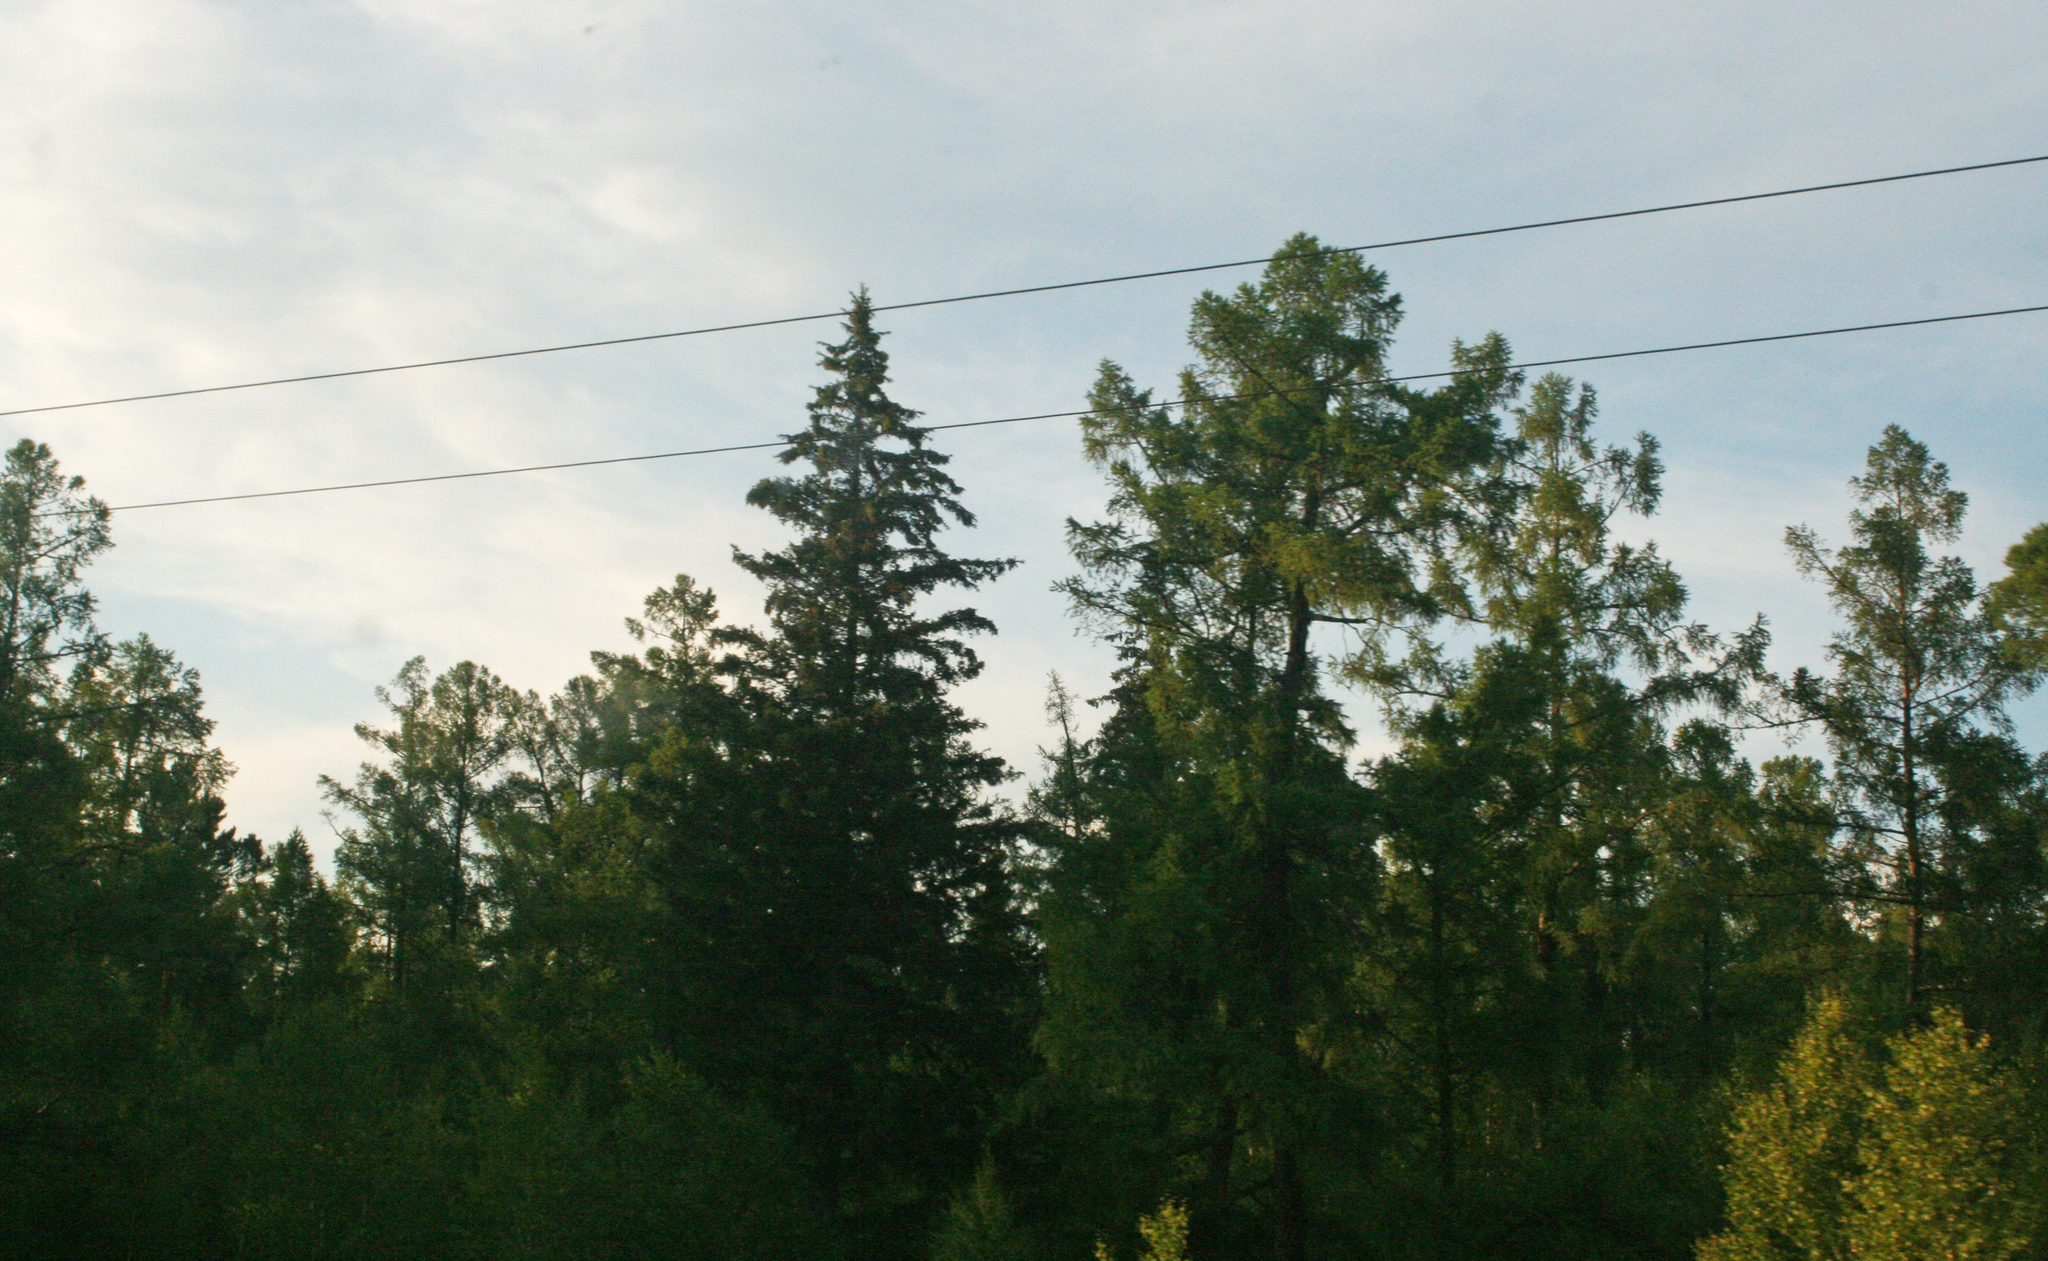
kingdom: Plantae
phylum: Tracheophyta
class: Pinopsida
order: Pinales
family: Pinaceae
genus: Larix
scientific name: Larix sibirica
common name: Siberian larch
